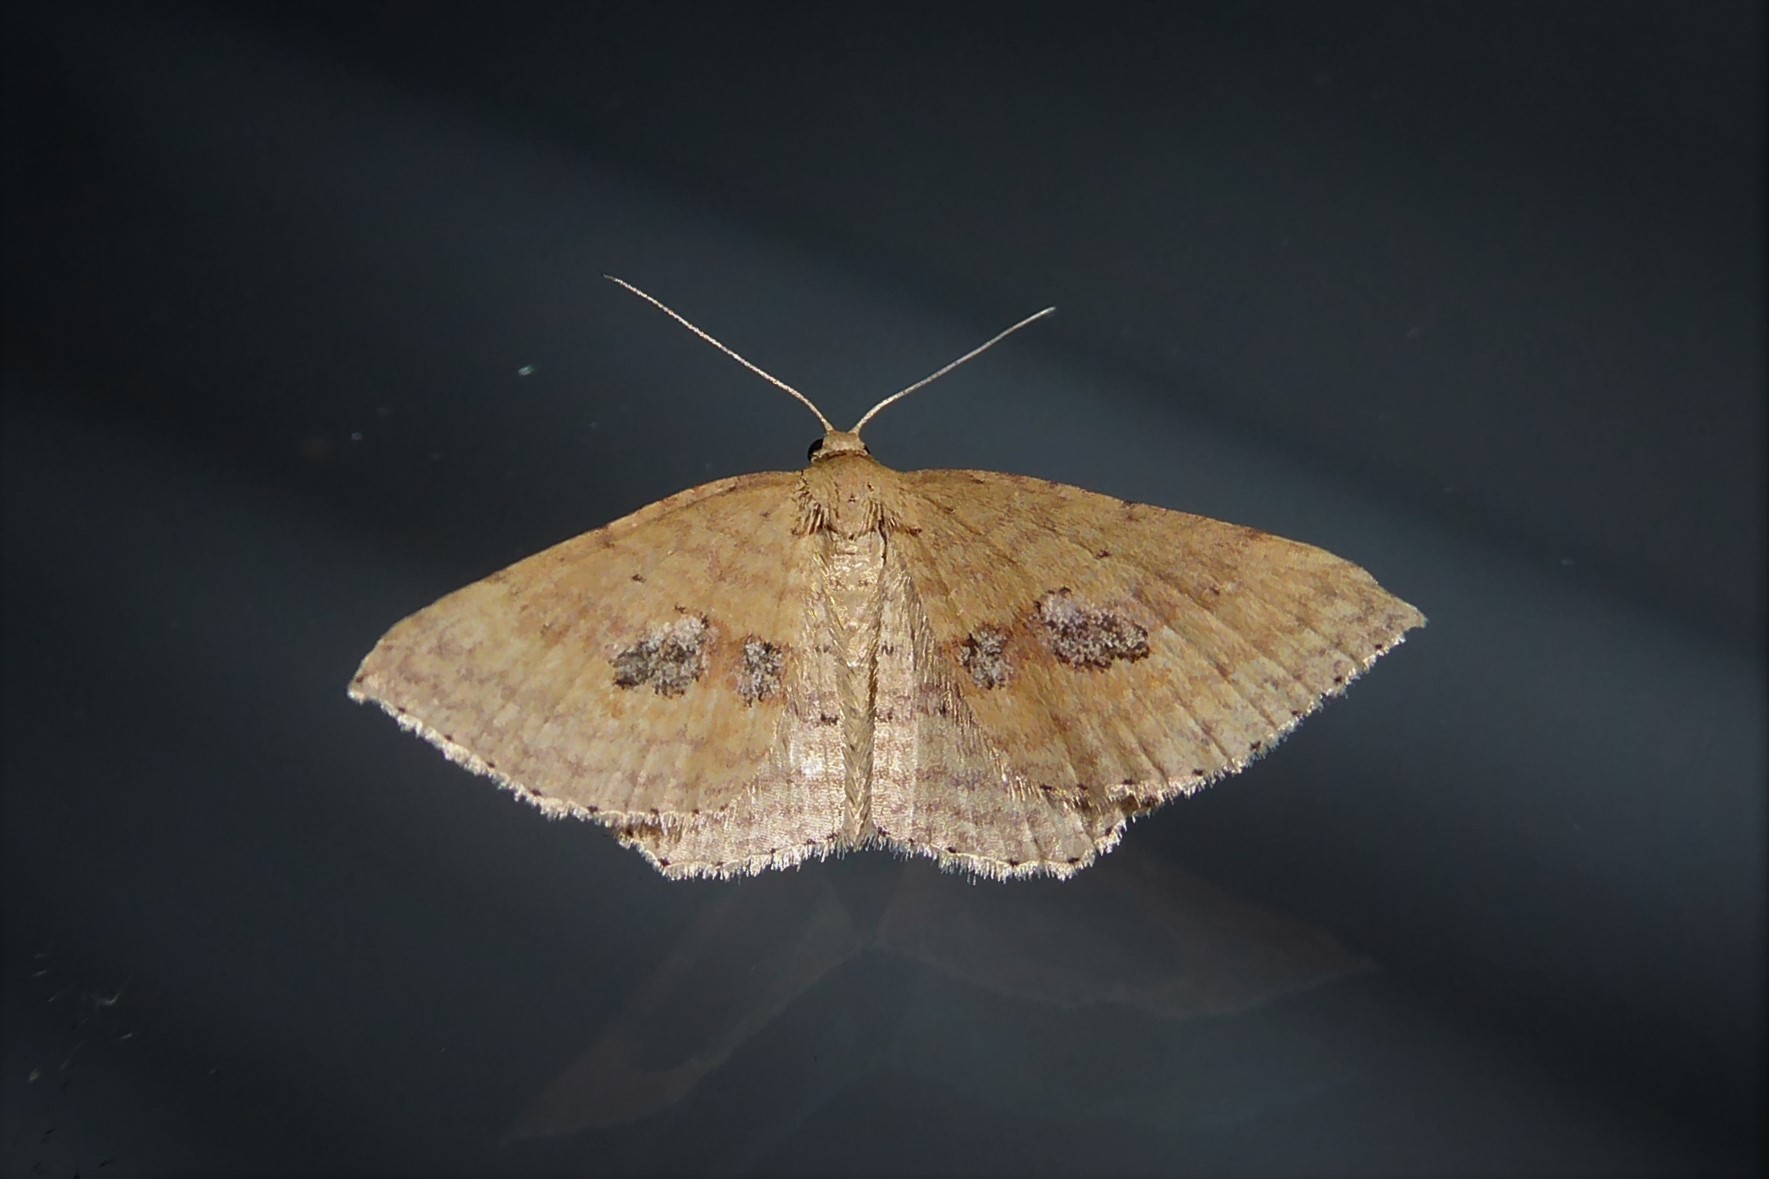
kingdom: Animalia
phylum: Arthropoda
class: Insecta
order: Lepidoptera
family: Geometridae
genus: Epicyme
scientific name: Epicyme rubropunctaria
